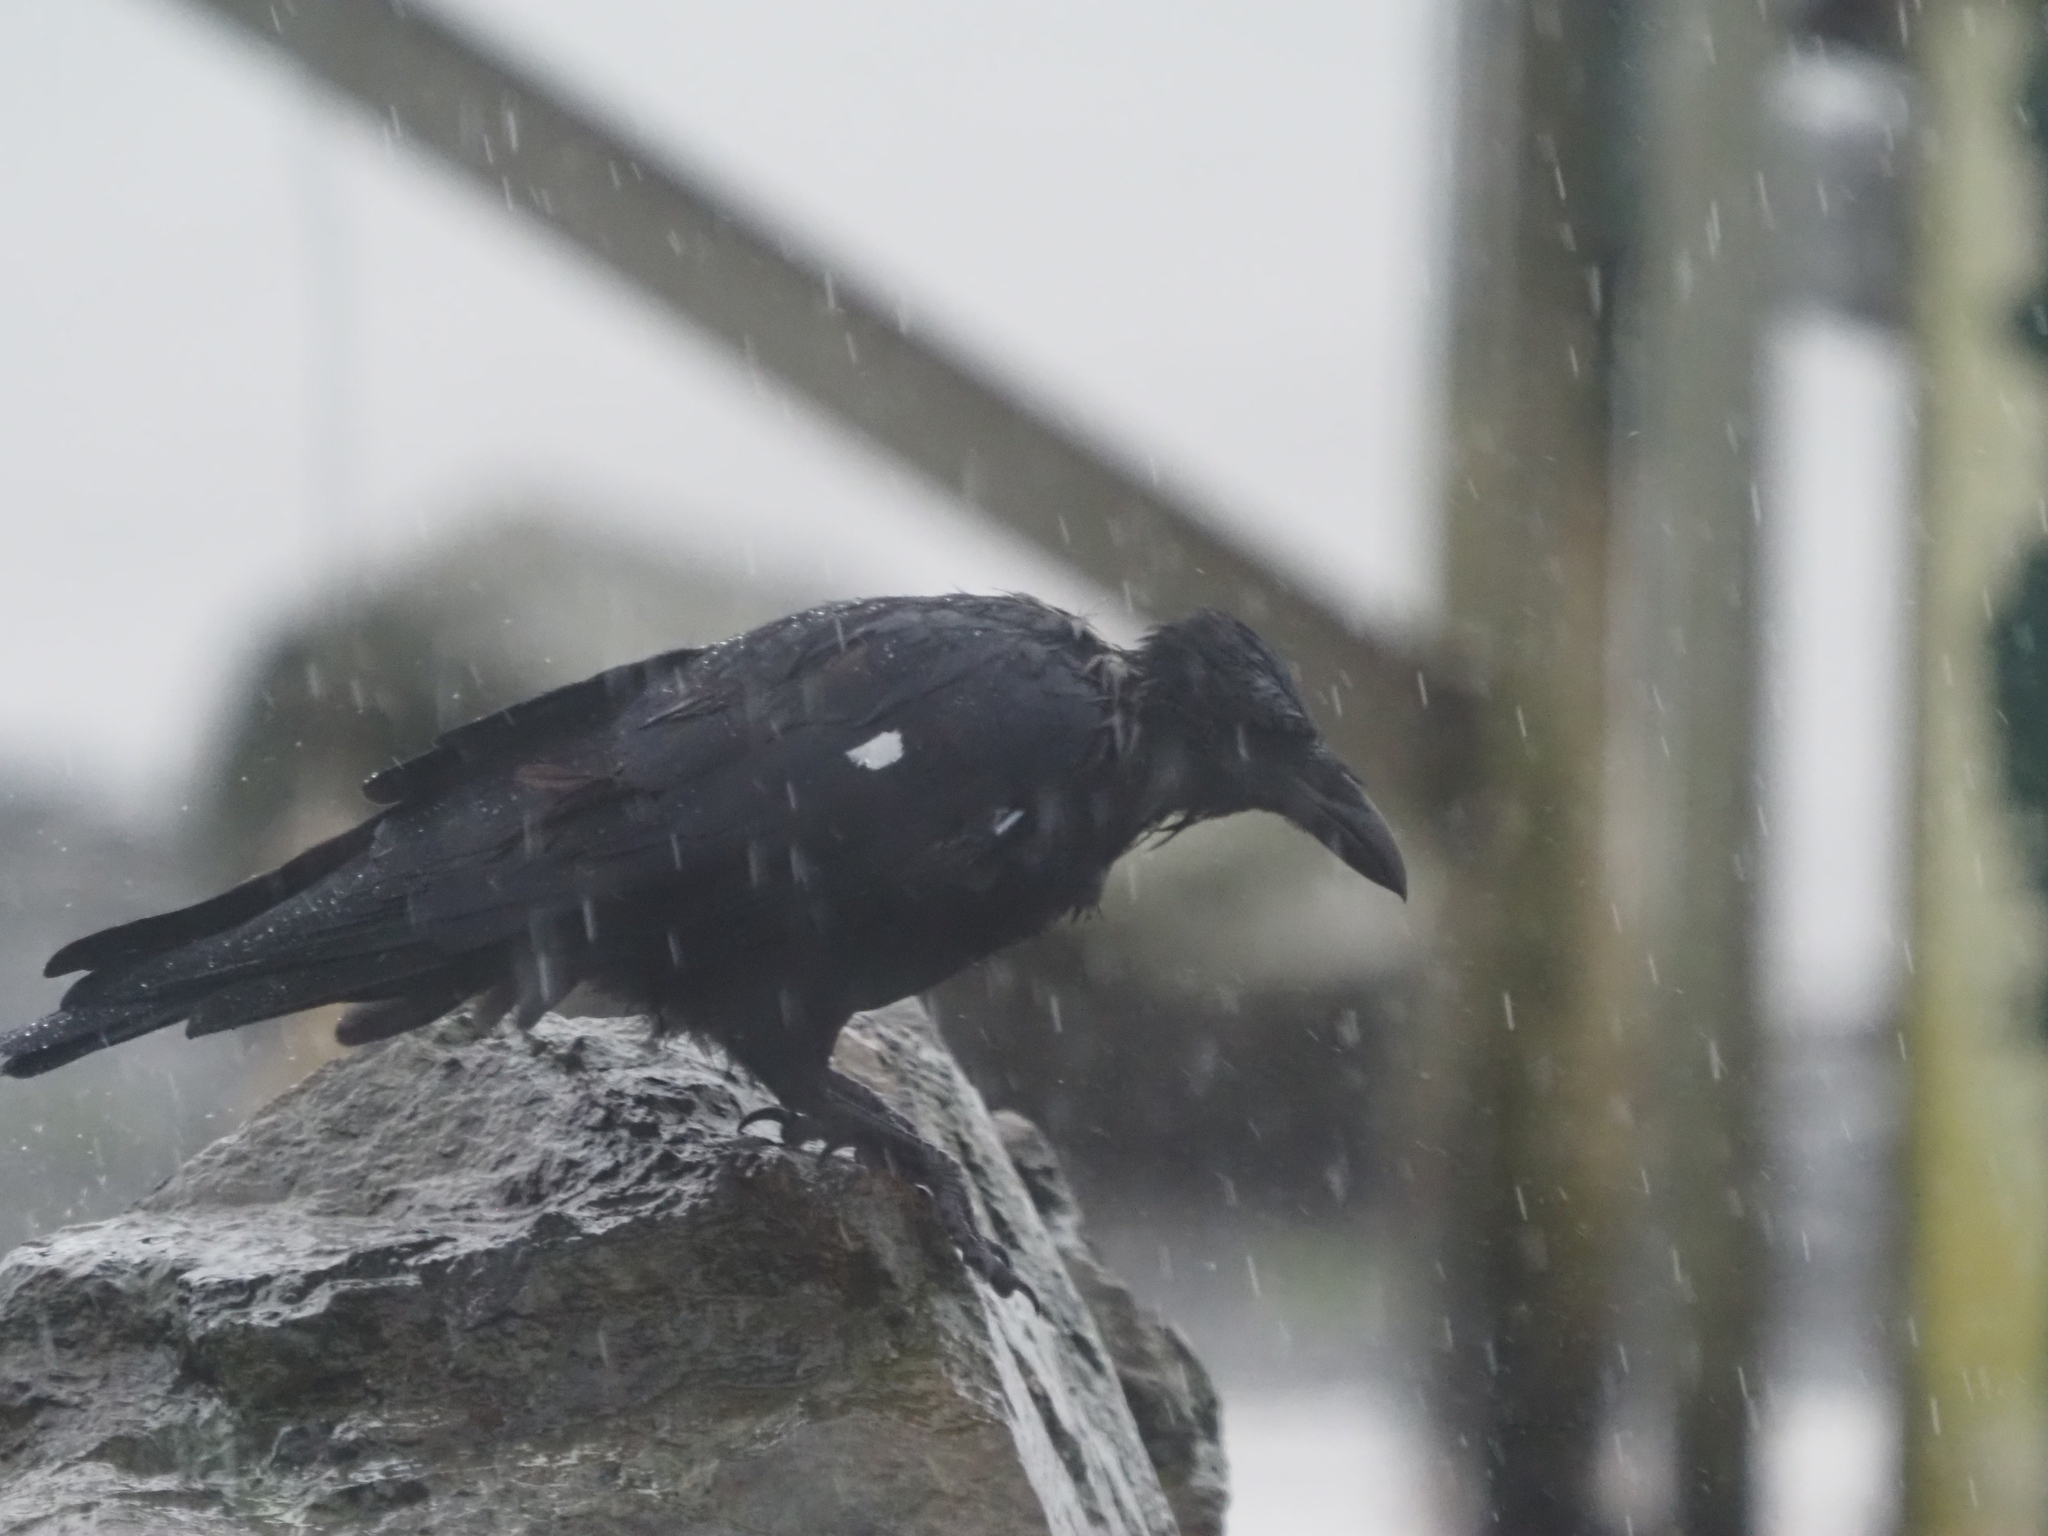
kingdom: Animalia
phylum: Chordata
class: Aves
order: Passeriformes
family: Corvidae
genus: Corvus
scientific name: Corvus corax
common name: Common raven
